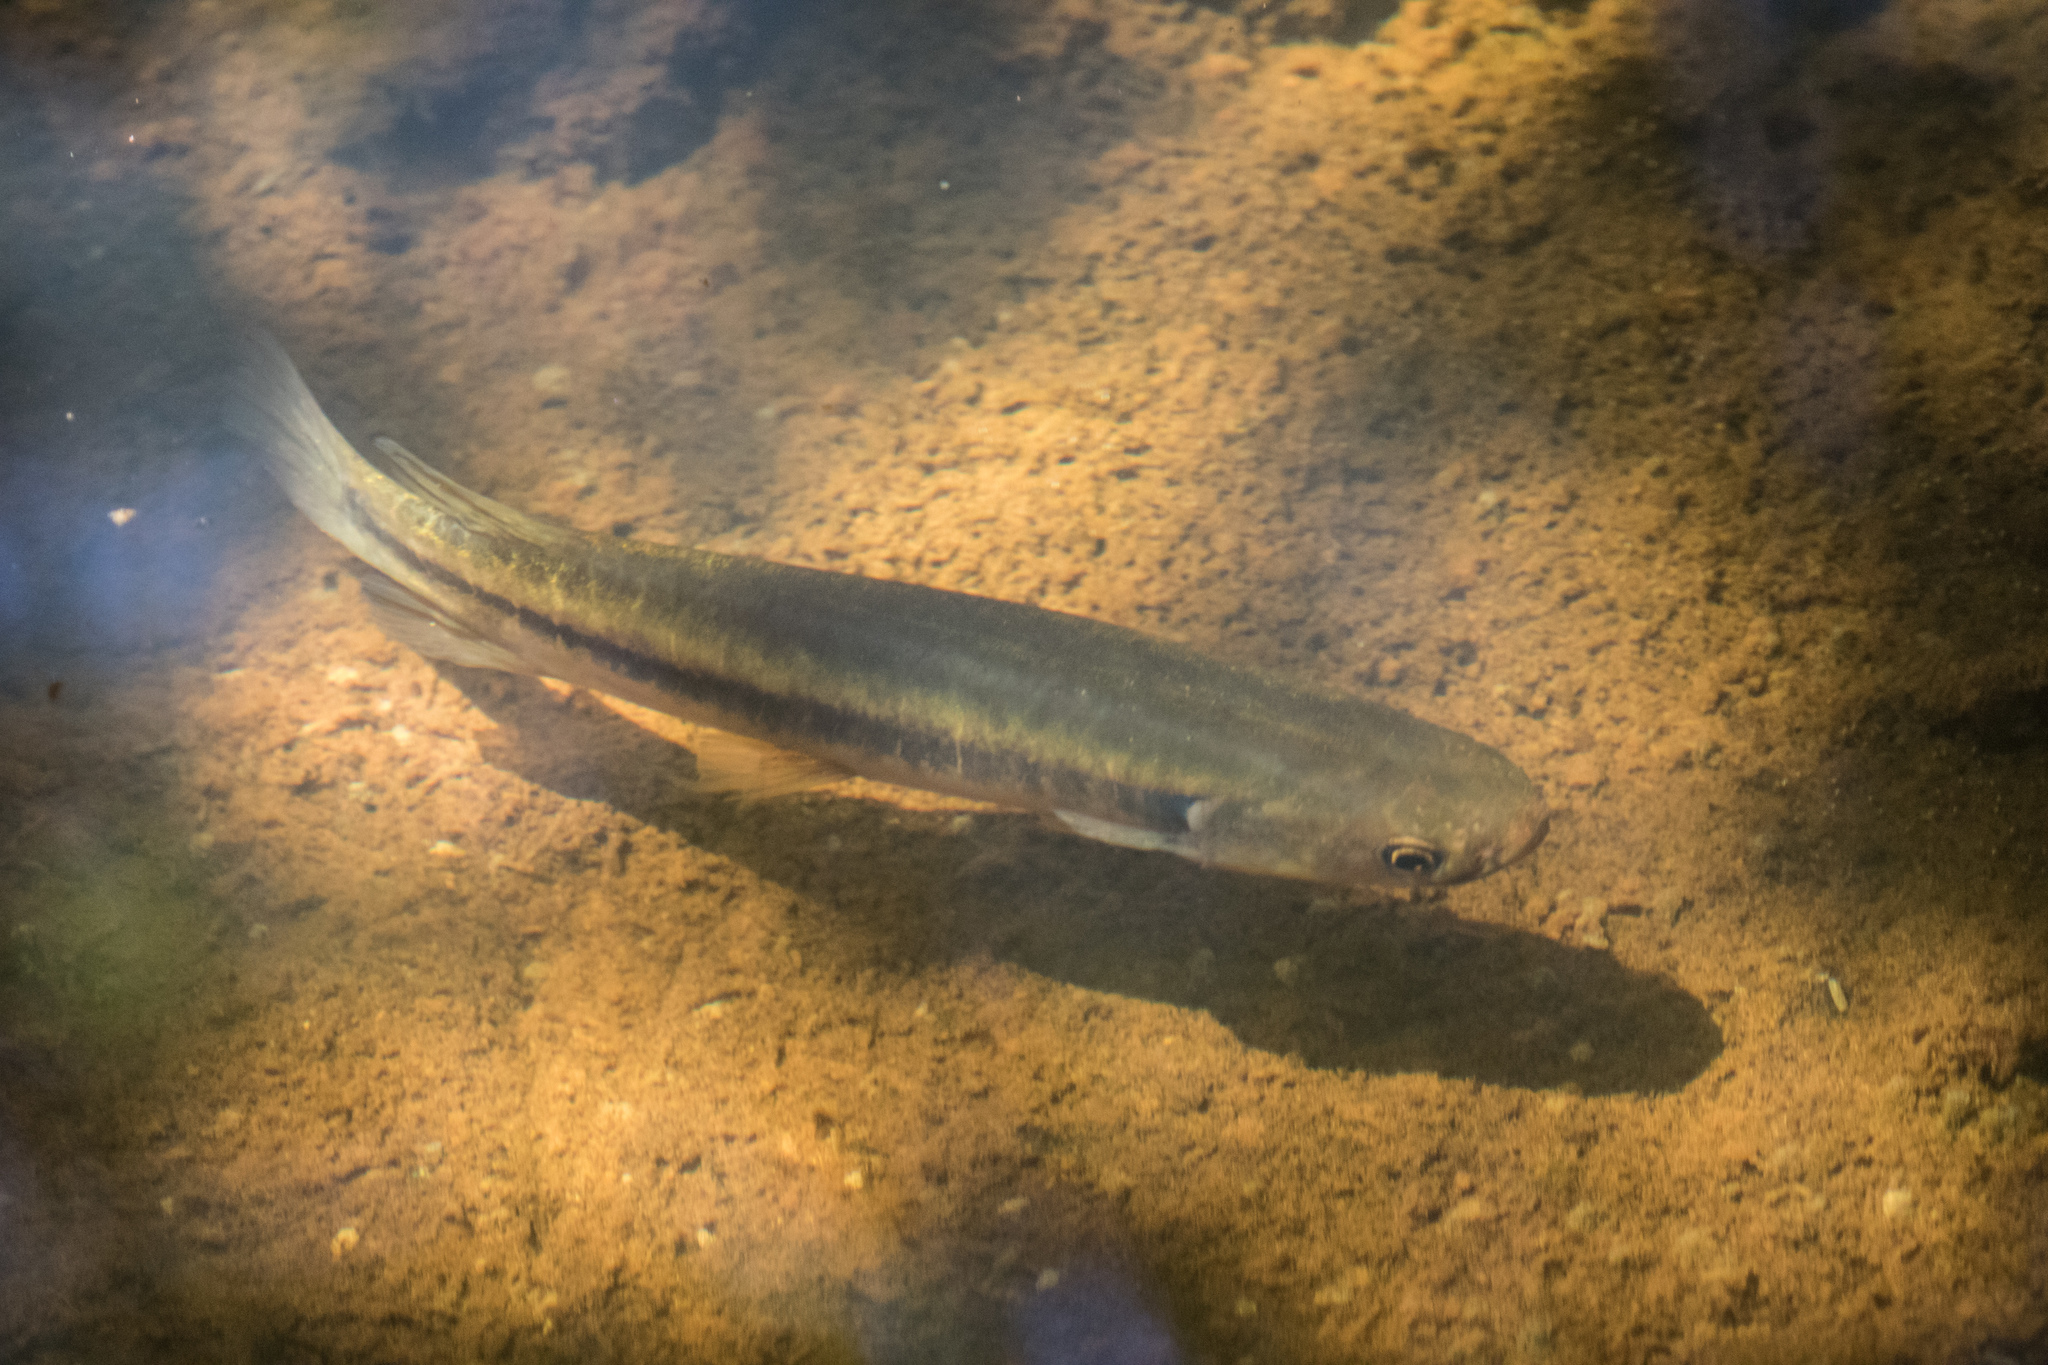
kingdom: Animalia
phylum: Chordata
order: Osmeriformes
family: Galaxiidae
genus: Galaxias
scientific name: Galaxias fasciatus
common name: Banded kokopu
